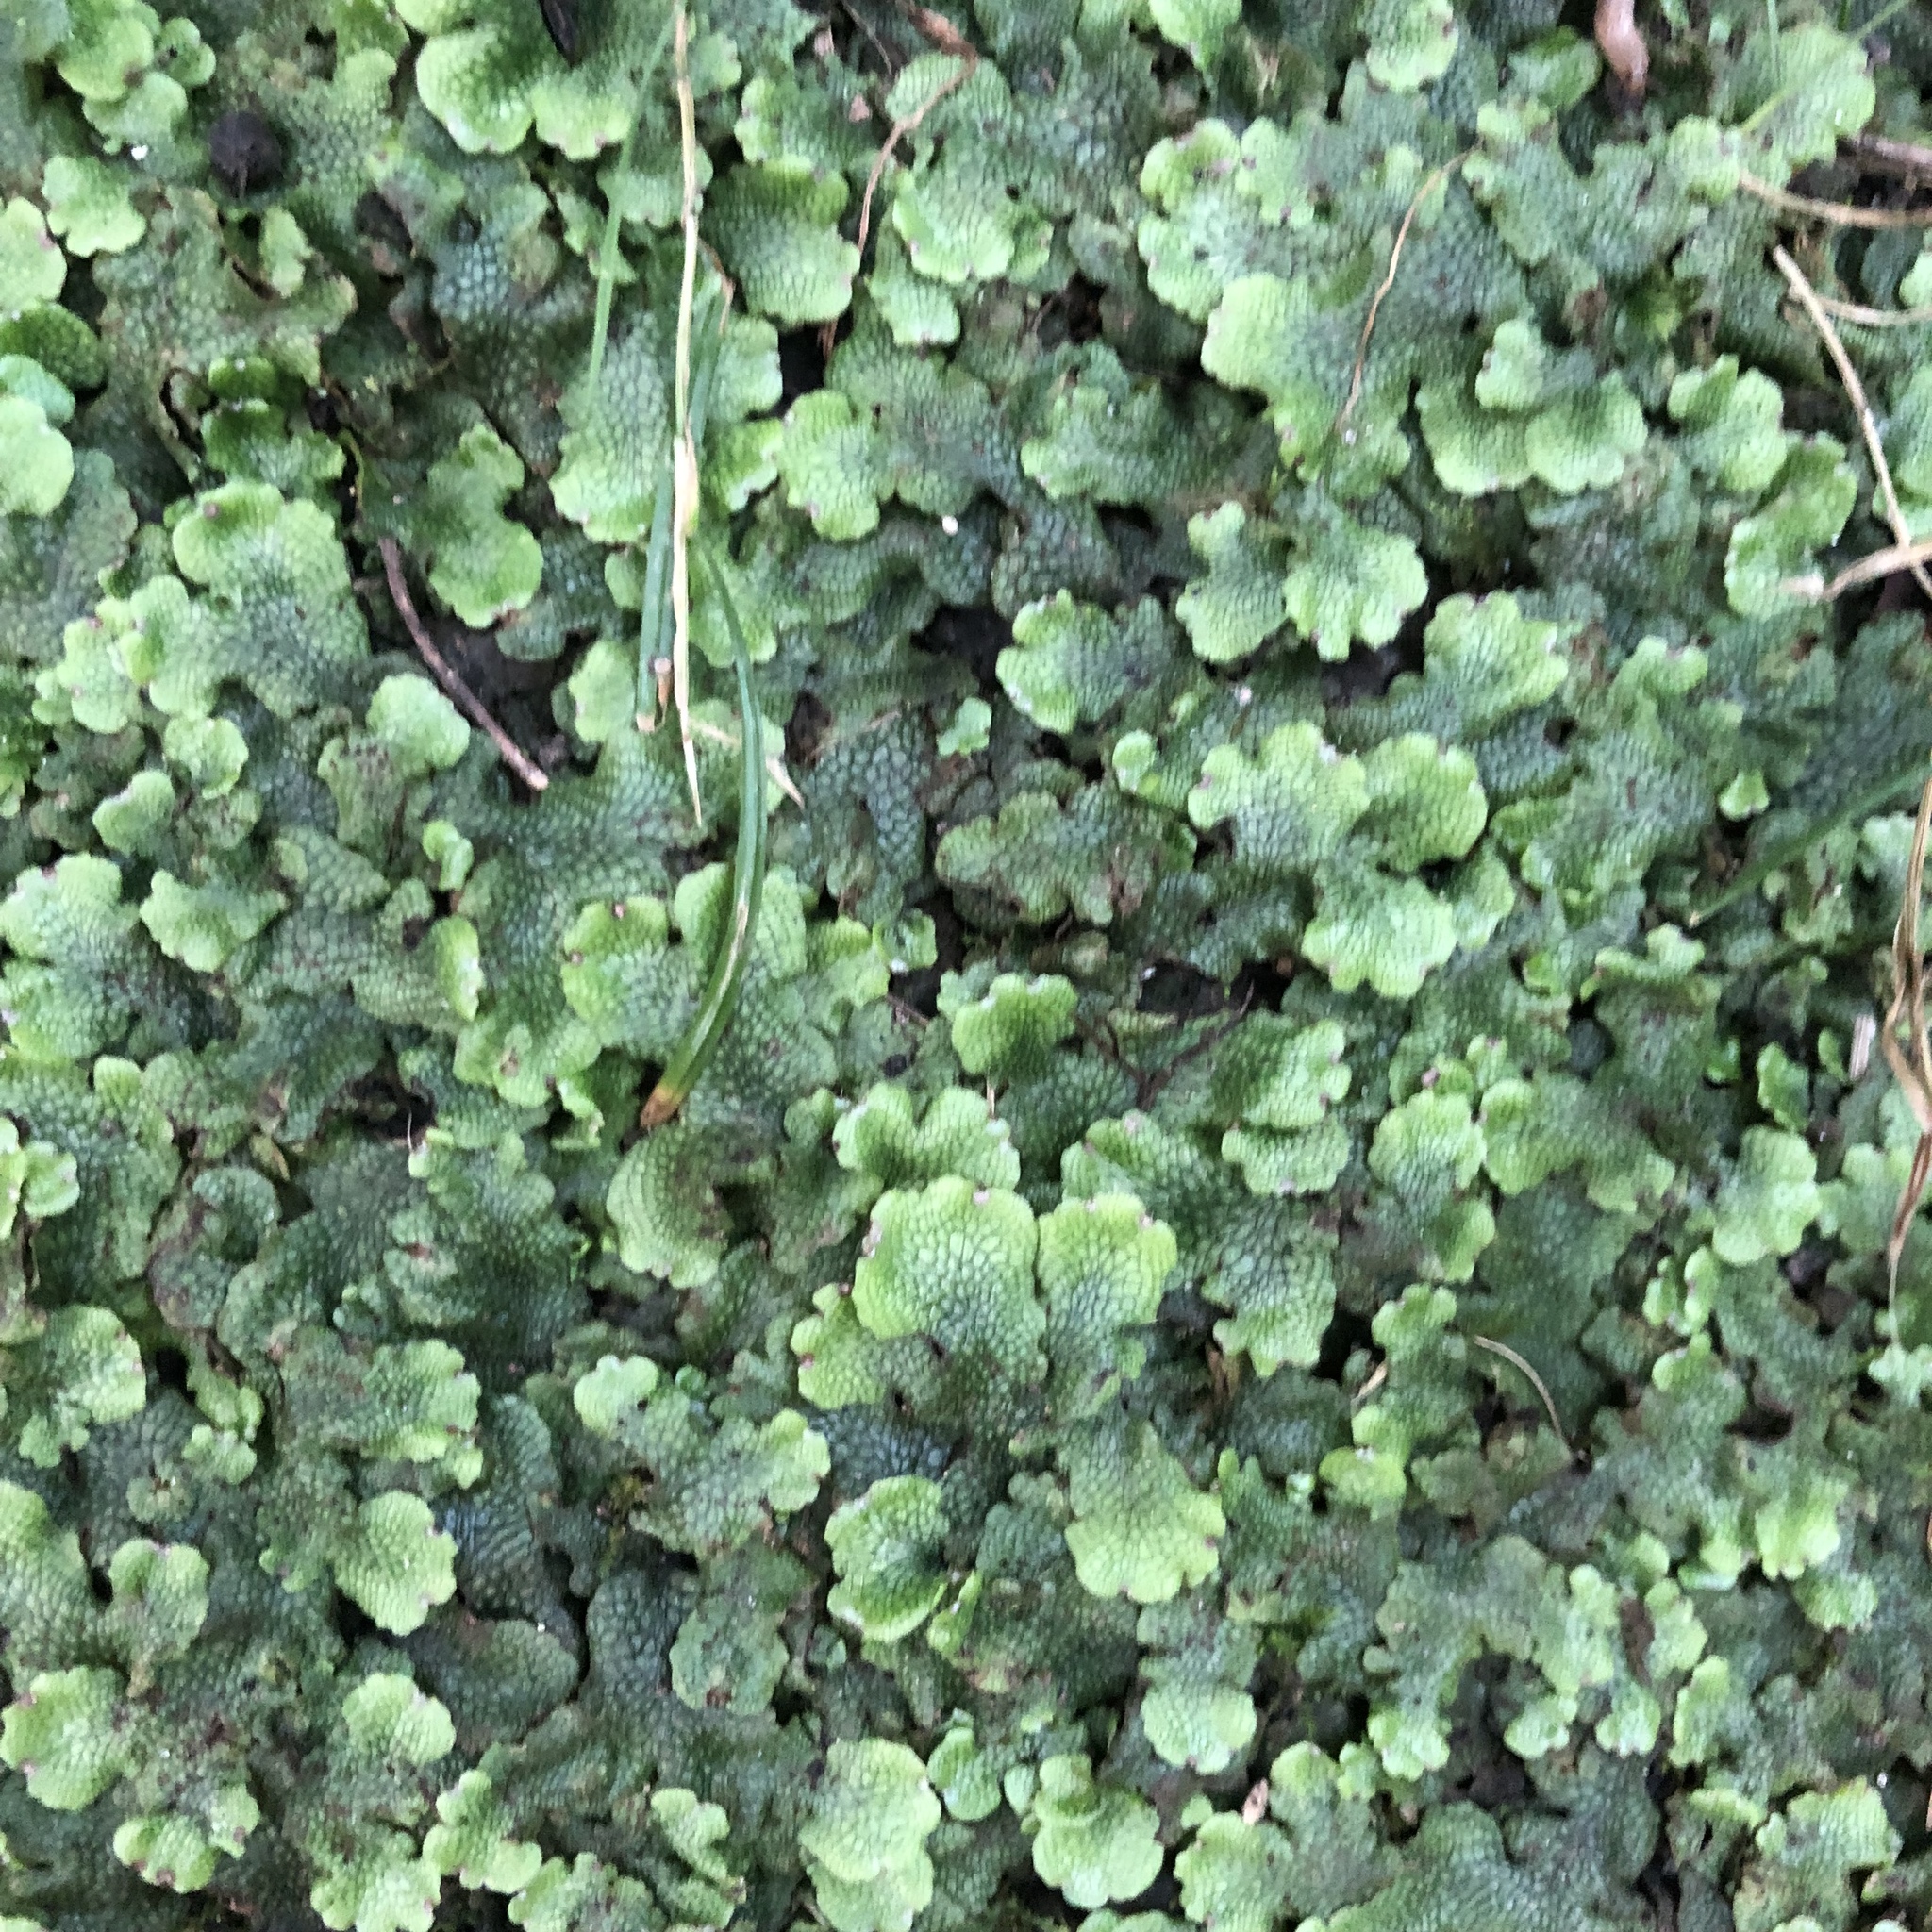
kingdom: Plantae
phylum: Marchantiophyta
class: Marchantiopsida
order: Marchantiales
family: Conocephalaceae
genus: Conocephalum
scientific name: Conocephalum salebrosum
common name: Cat-tongue liverwort
